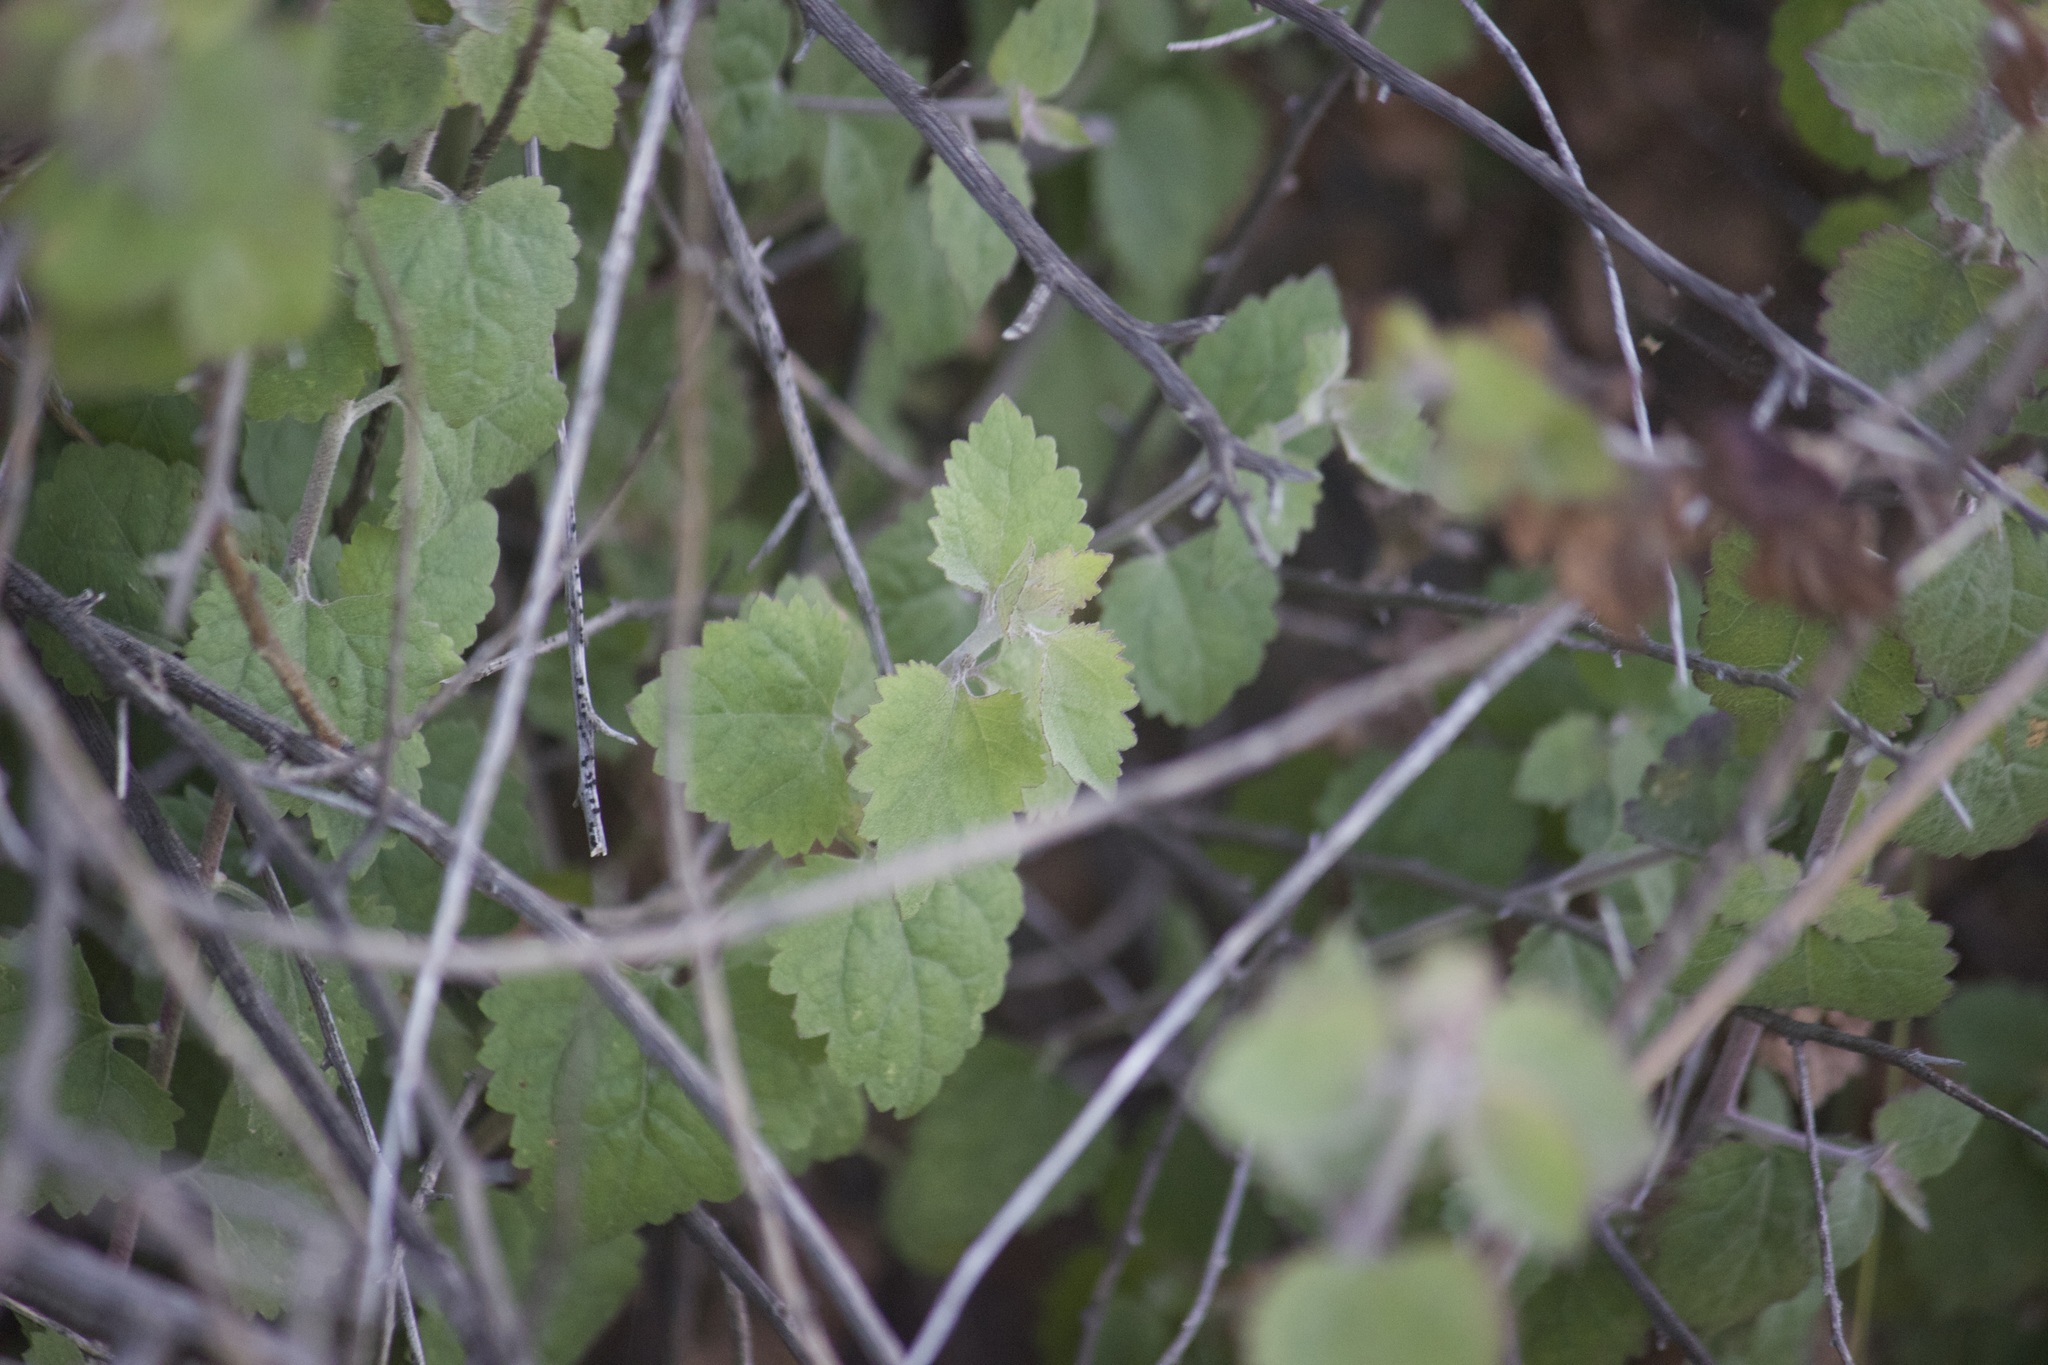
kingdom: Plantae
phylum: Tracheophyta
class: Magnoliopsida
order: Asterales
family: Asteraceae
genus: Brickellia
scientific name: Brickellia californica
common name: California brickellbush
